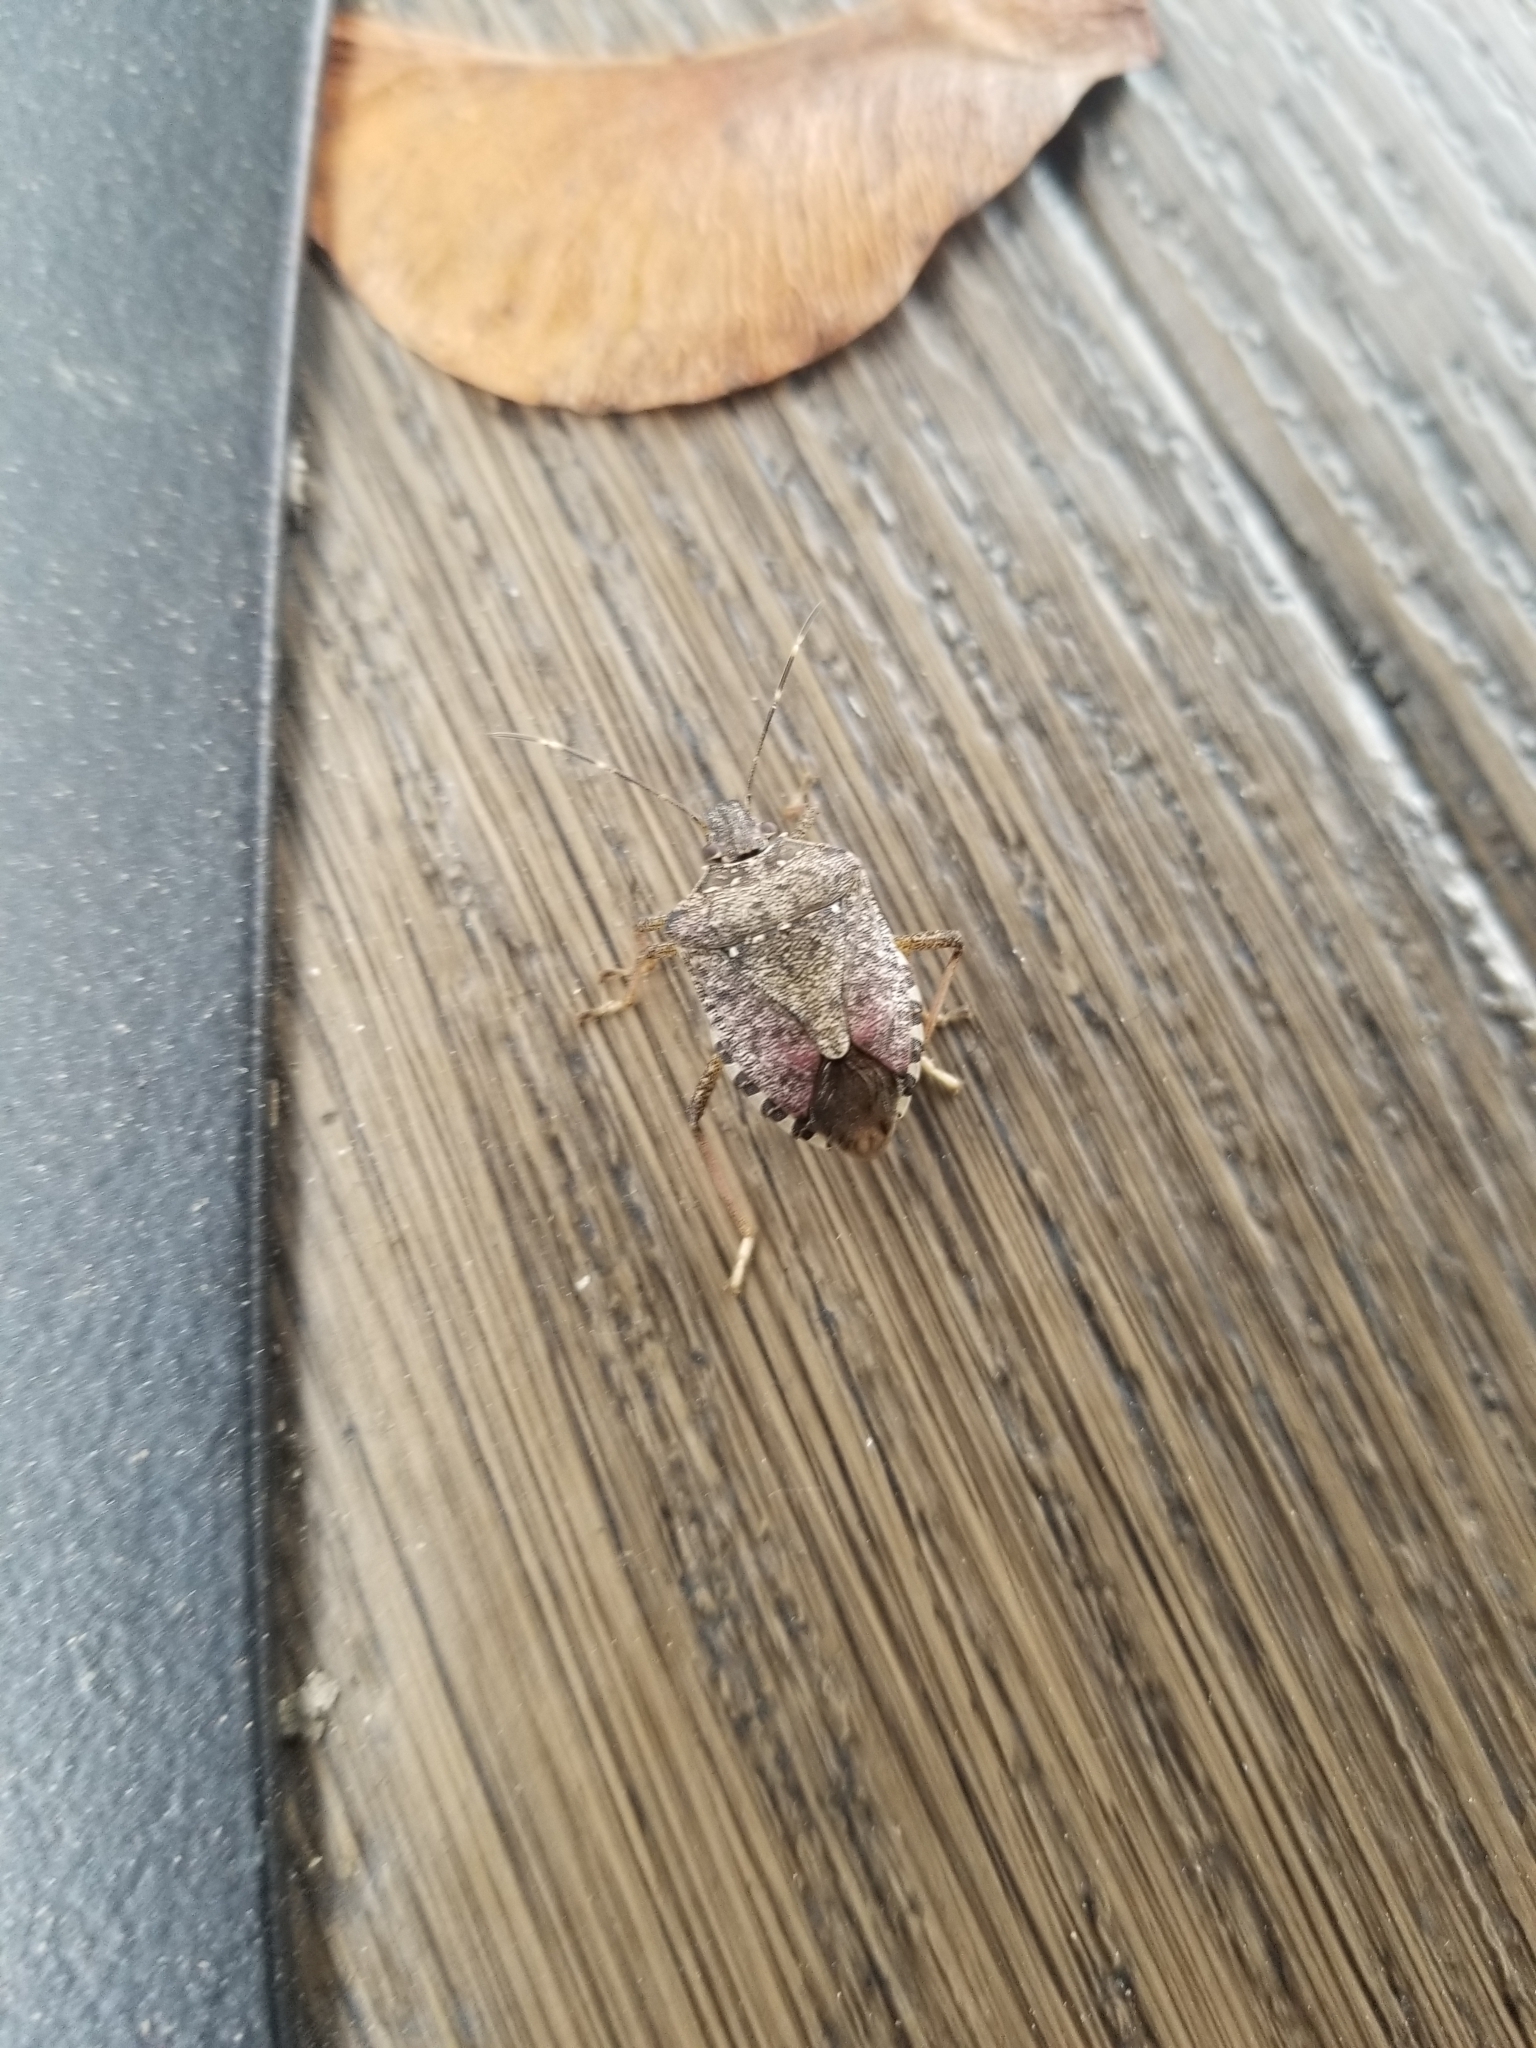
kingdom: Animalia
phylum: Arthropoda
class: Insecta
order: Hemiptera
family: Pentatomidae
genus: Halyomorpha
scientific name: Halyomorpha halys
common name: Brown marmorated stink bug
